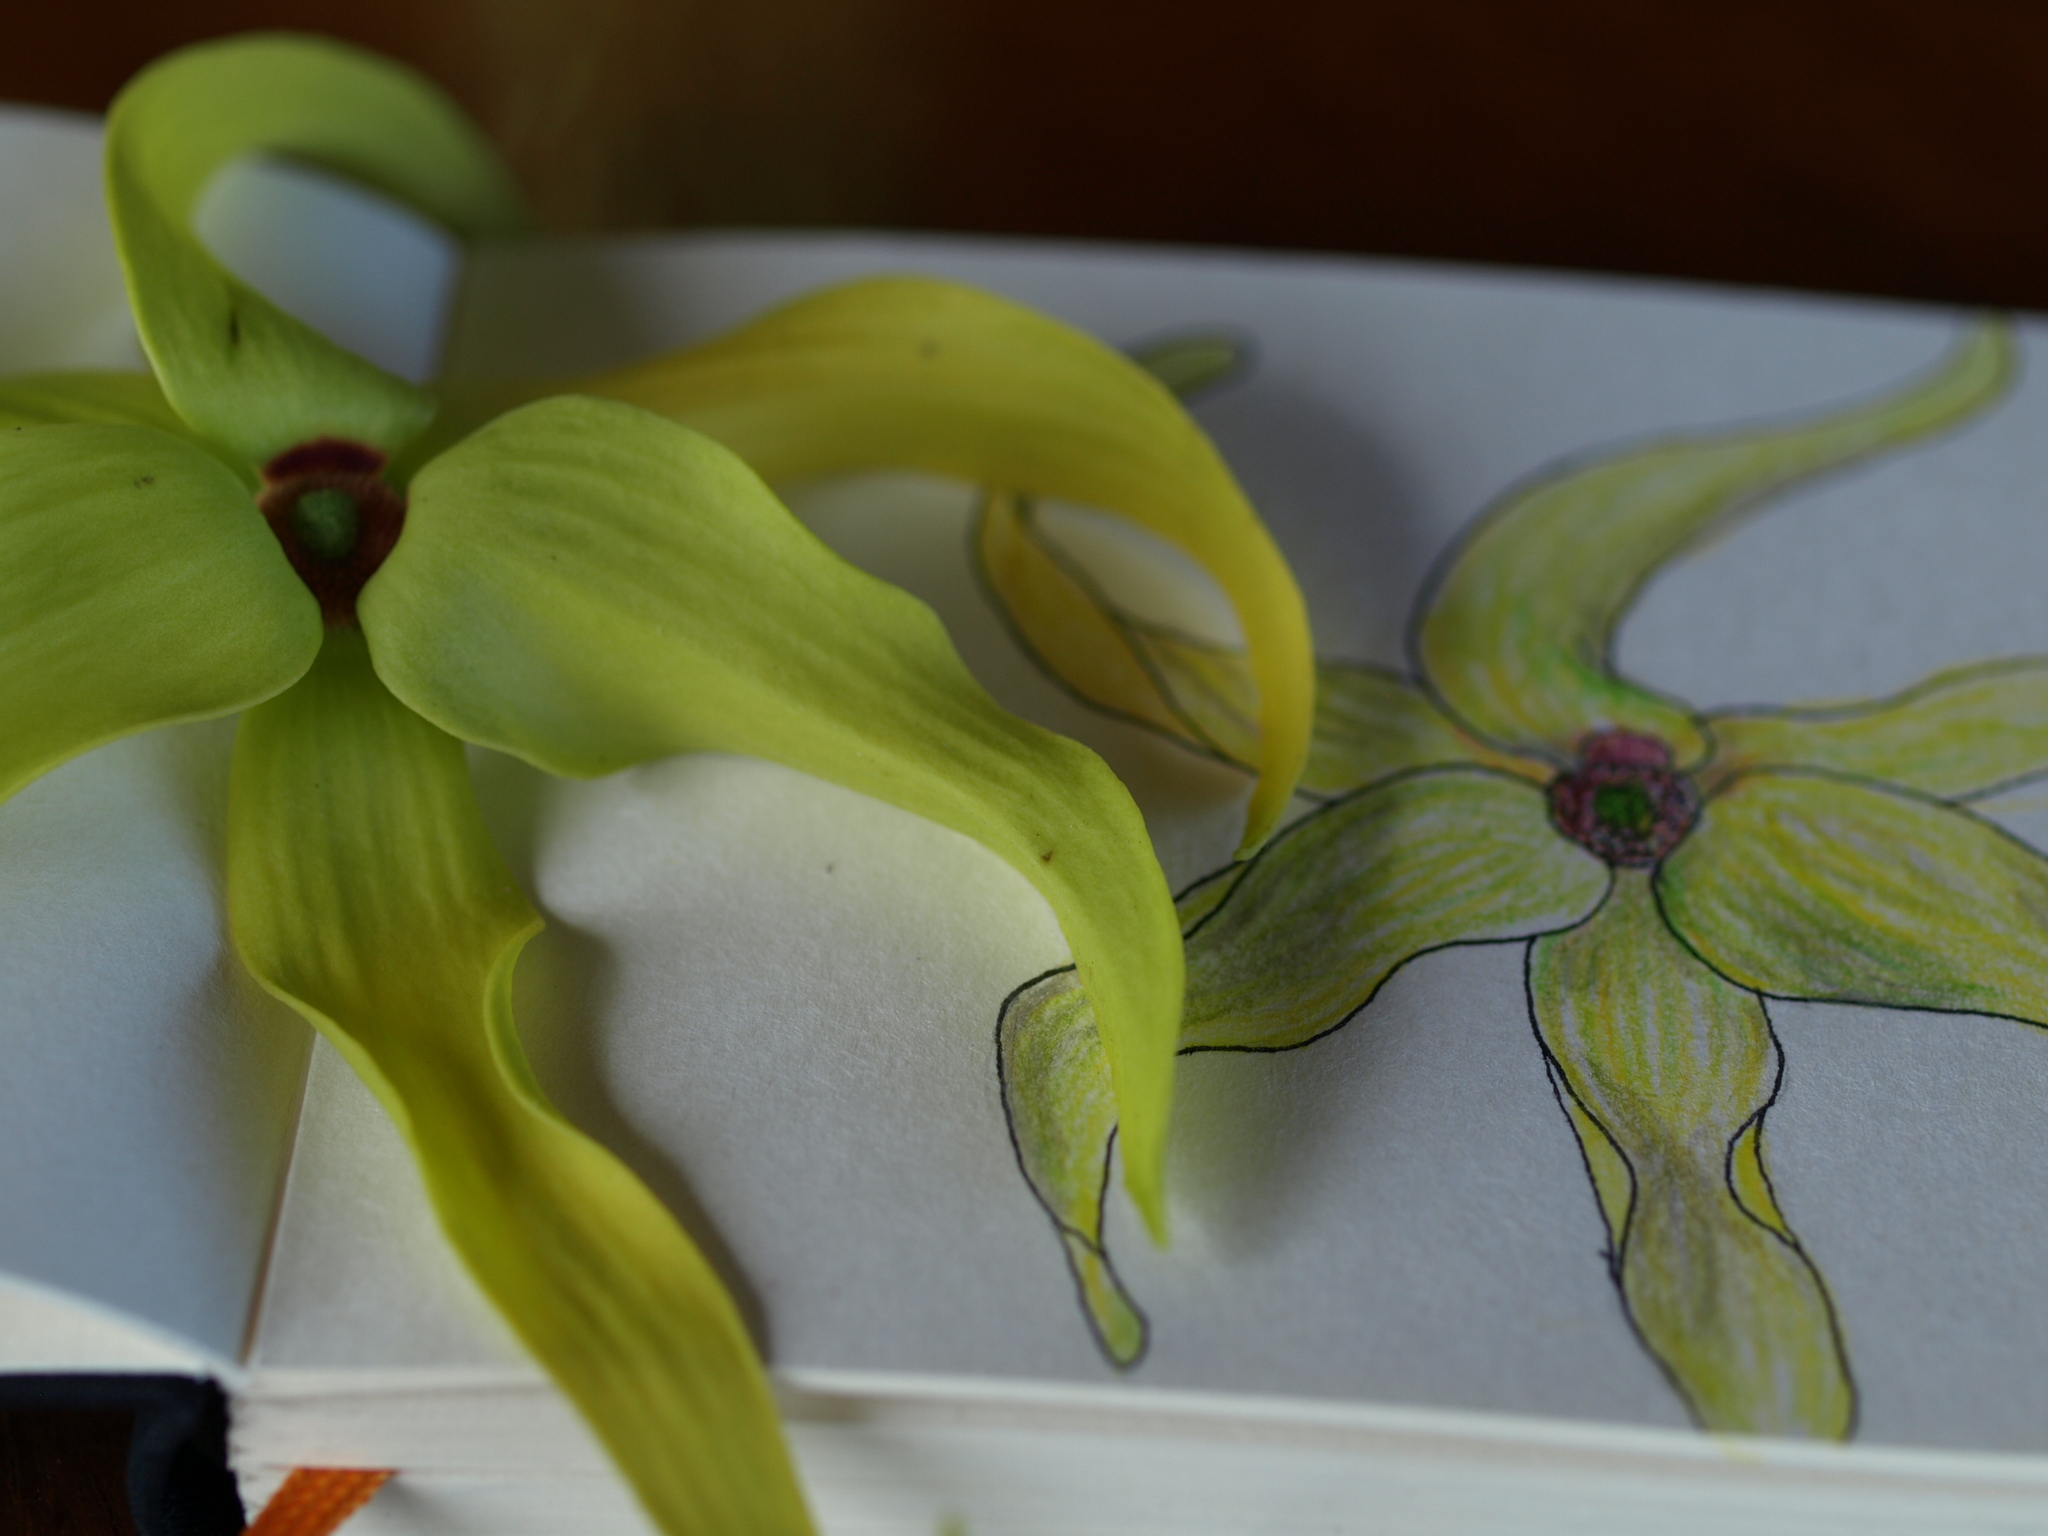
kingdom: Plantae
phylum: Tracheophyta
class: Magnoliopsida
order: Magnoliales
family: Annonaceae
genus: Cananga
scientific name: Cananga odorata
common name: Cananga tree
